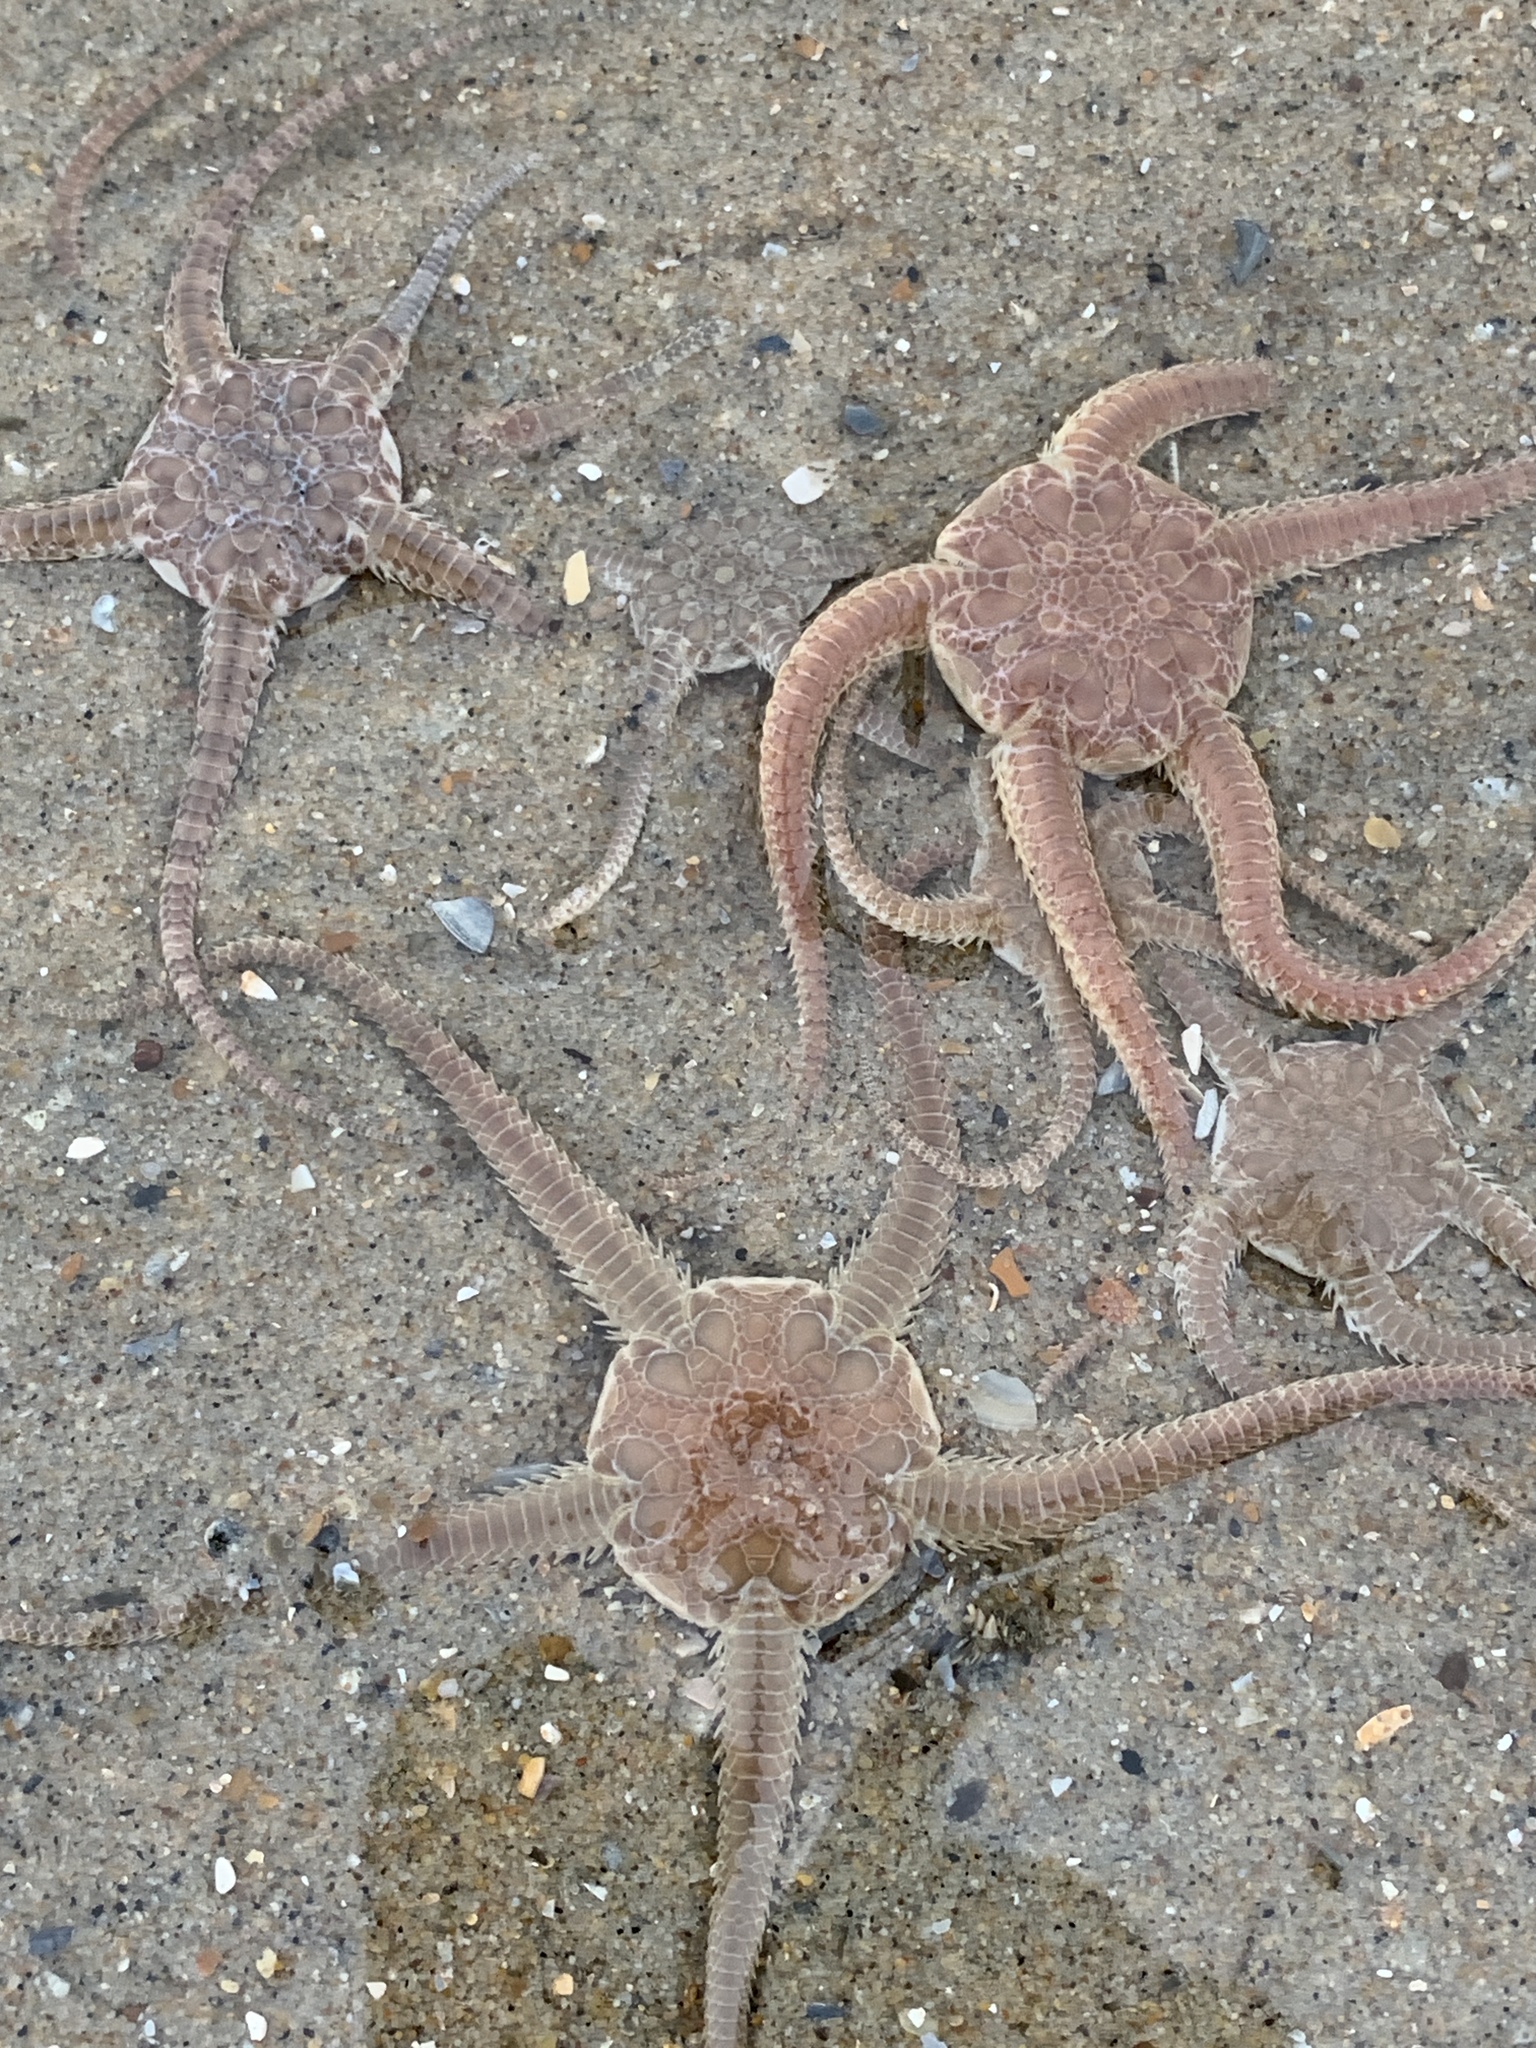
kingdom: Animalia
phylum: Echinodermata
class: Ophiuroidea
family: Ophiuridae
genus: Ophiura
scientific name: Ophiura ophiura
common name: Serpent star
